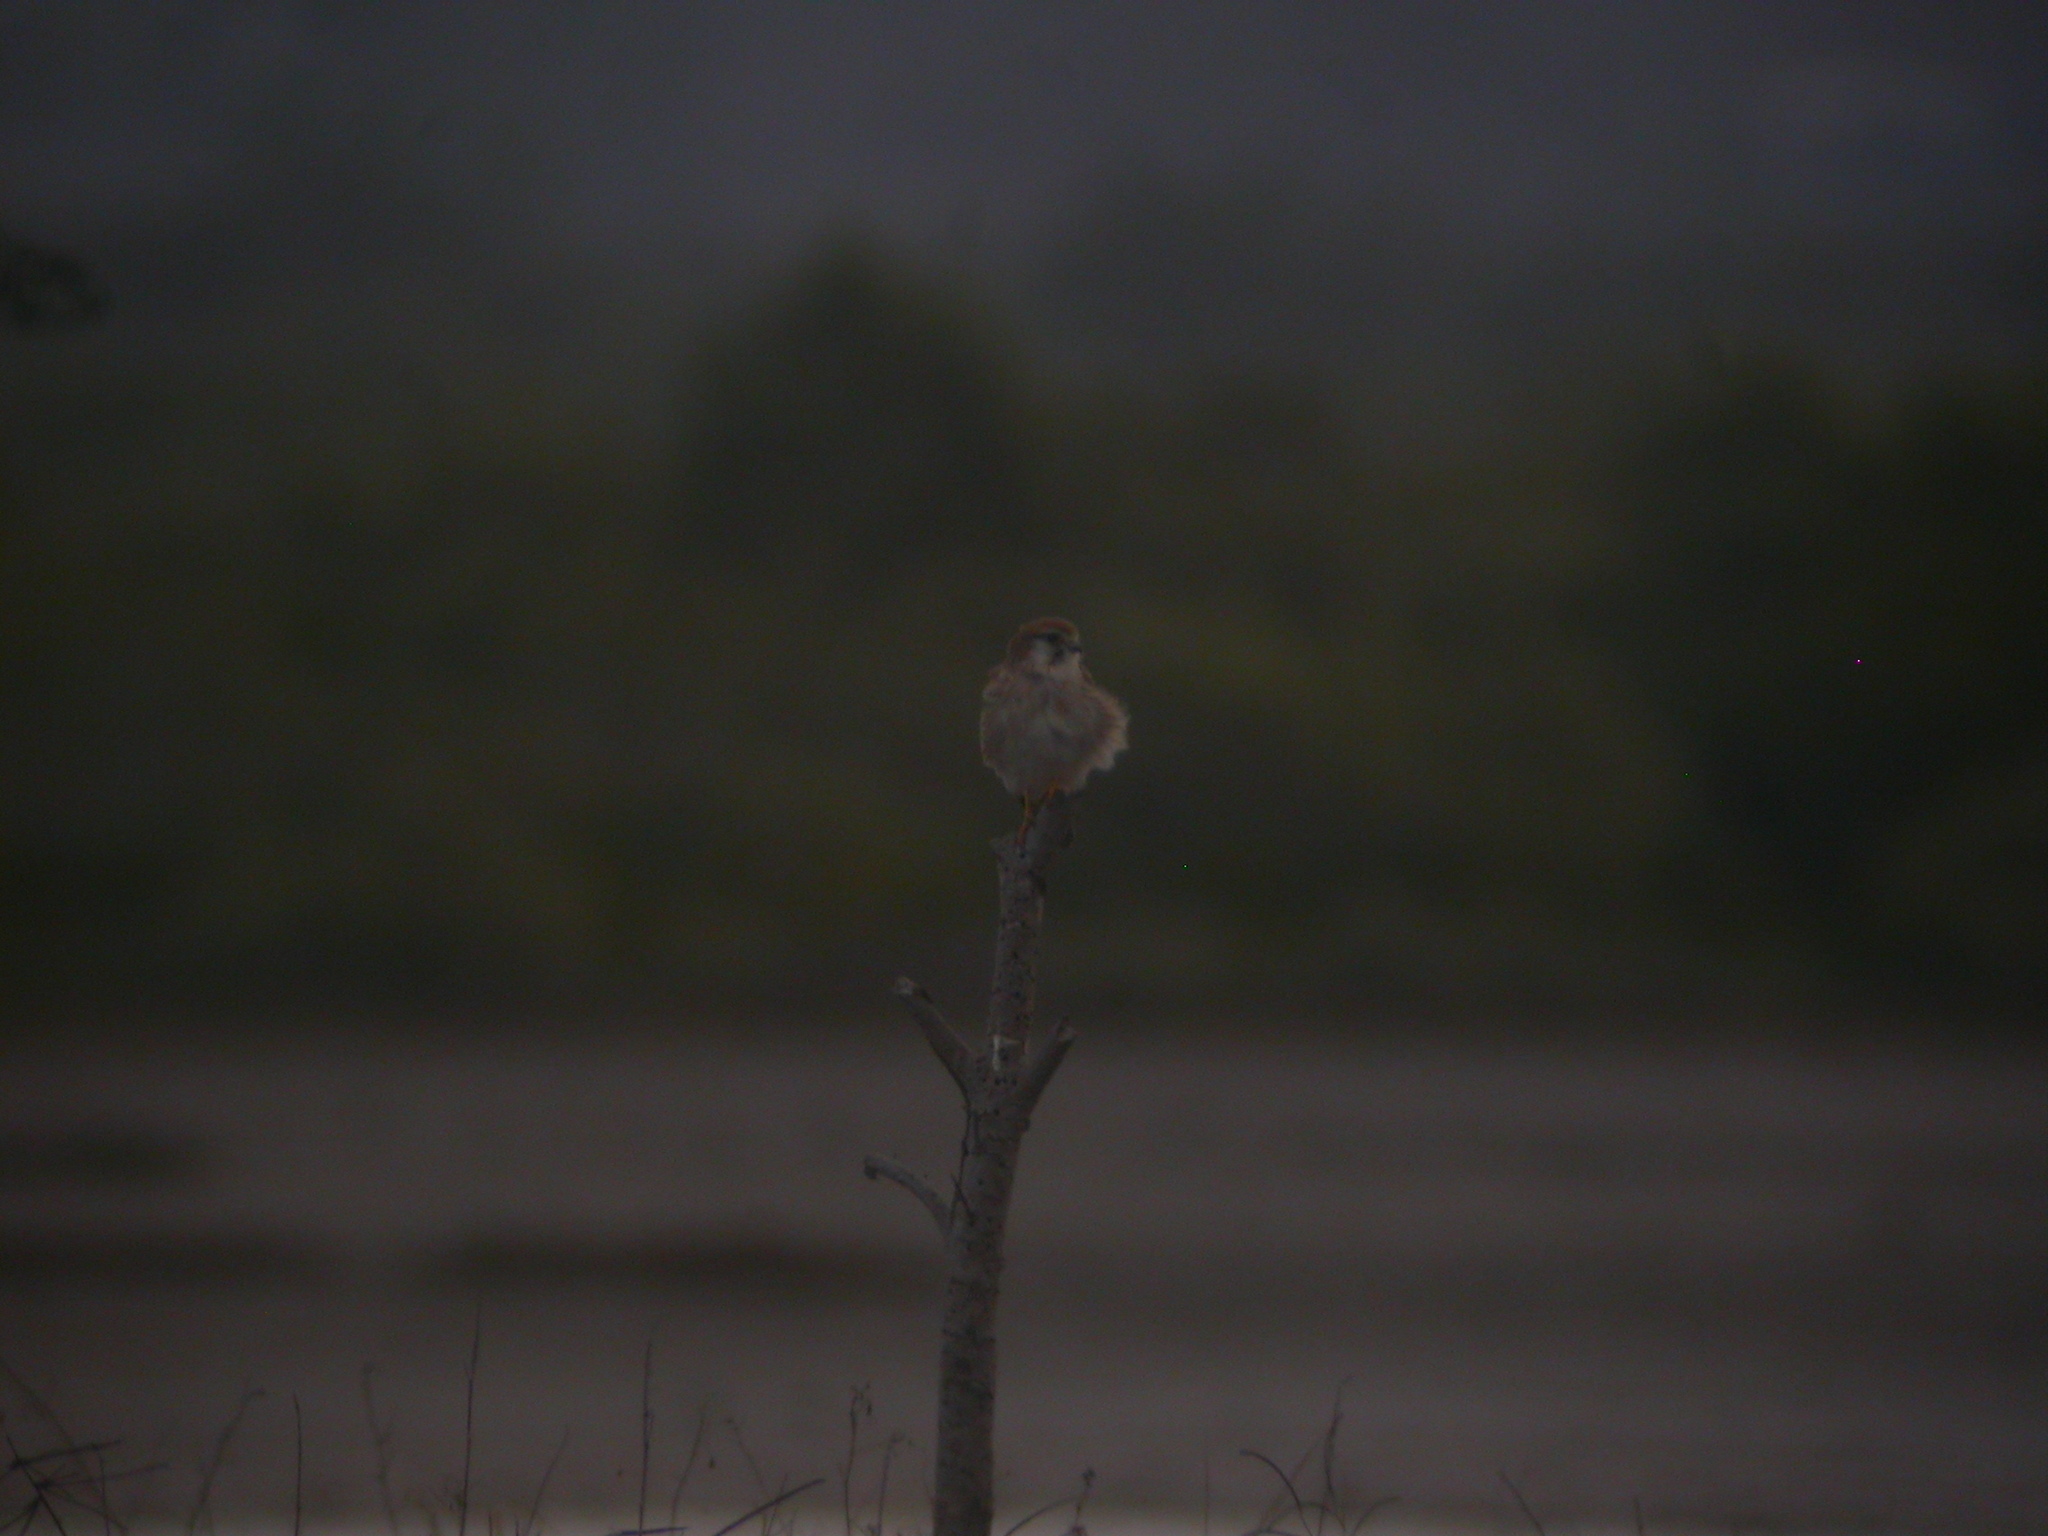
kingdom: Animalia
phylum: Chordata
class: Aves
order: Falconiformes
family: Falconidae
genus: Falco
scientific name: Falco cenchroides
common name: Nankeen kestrel
